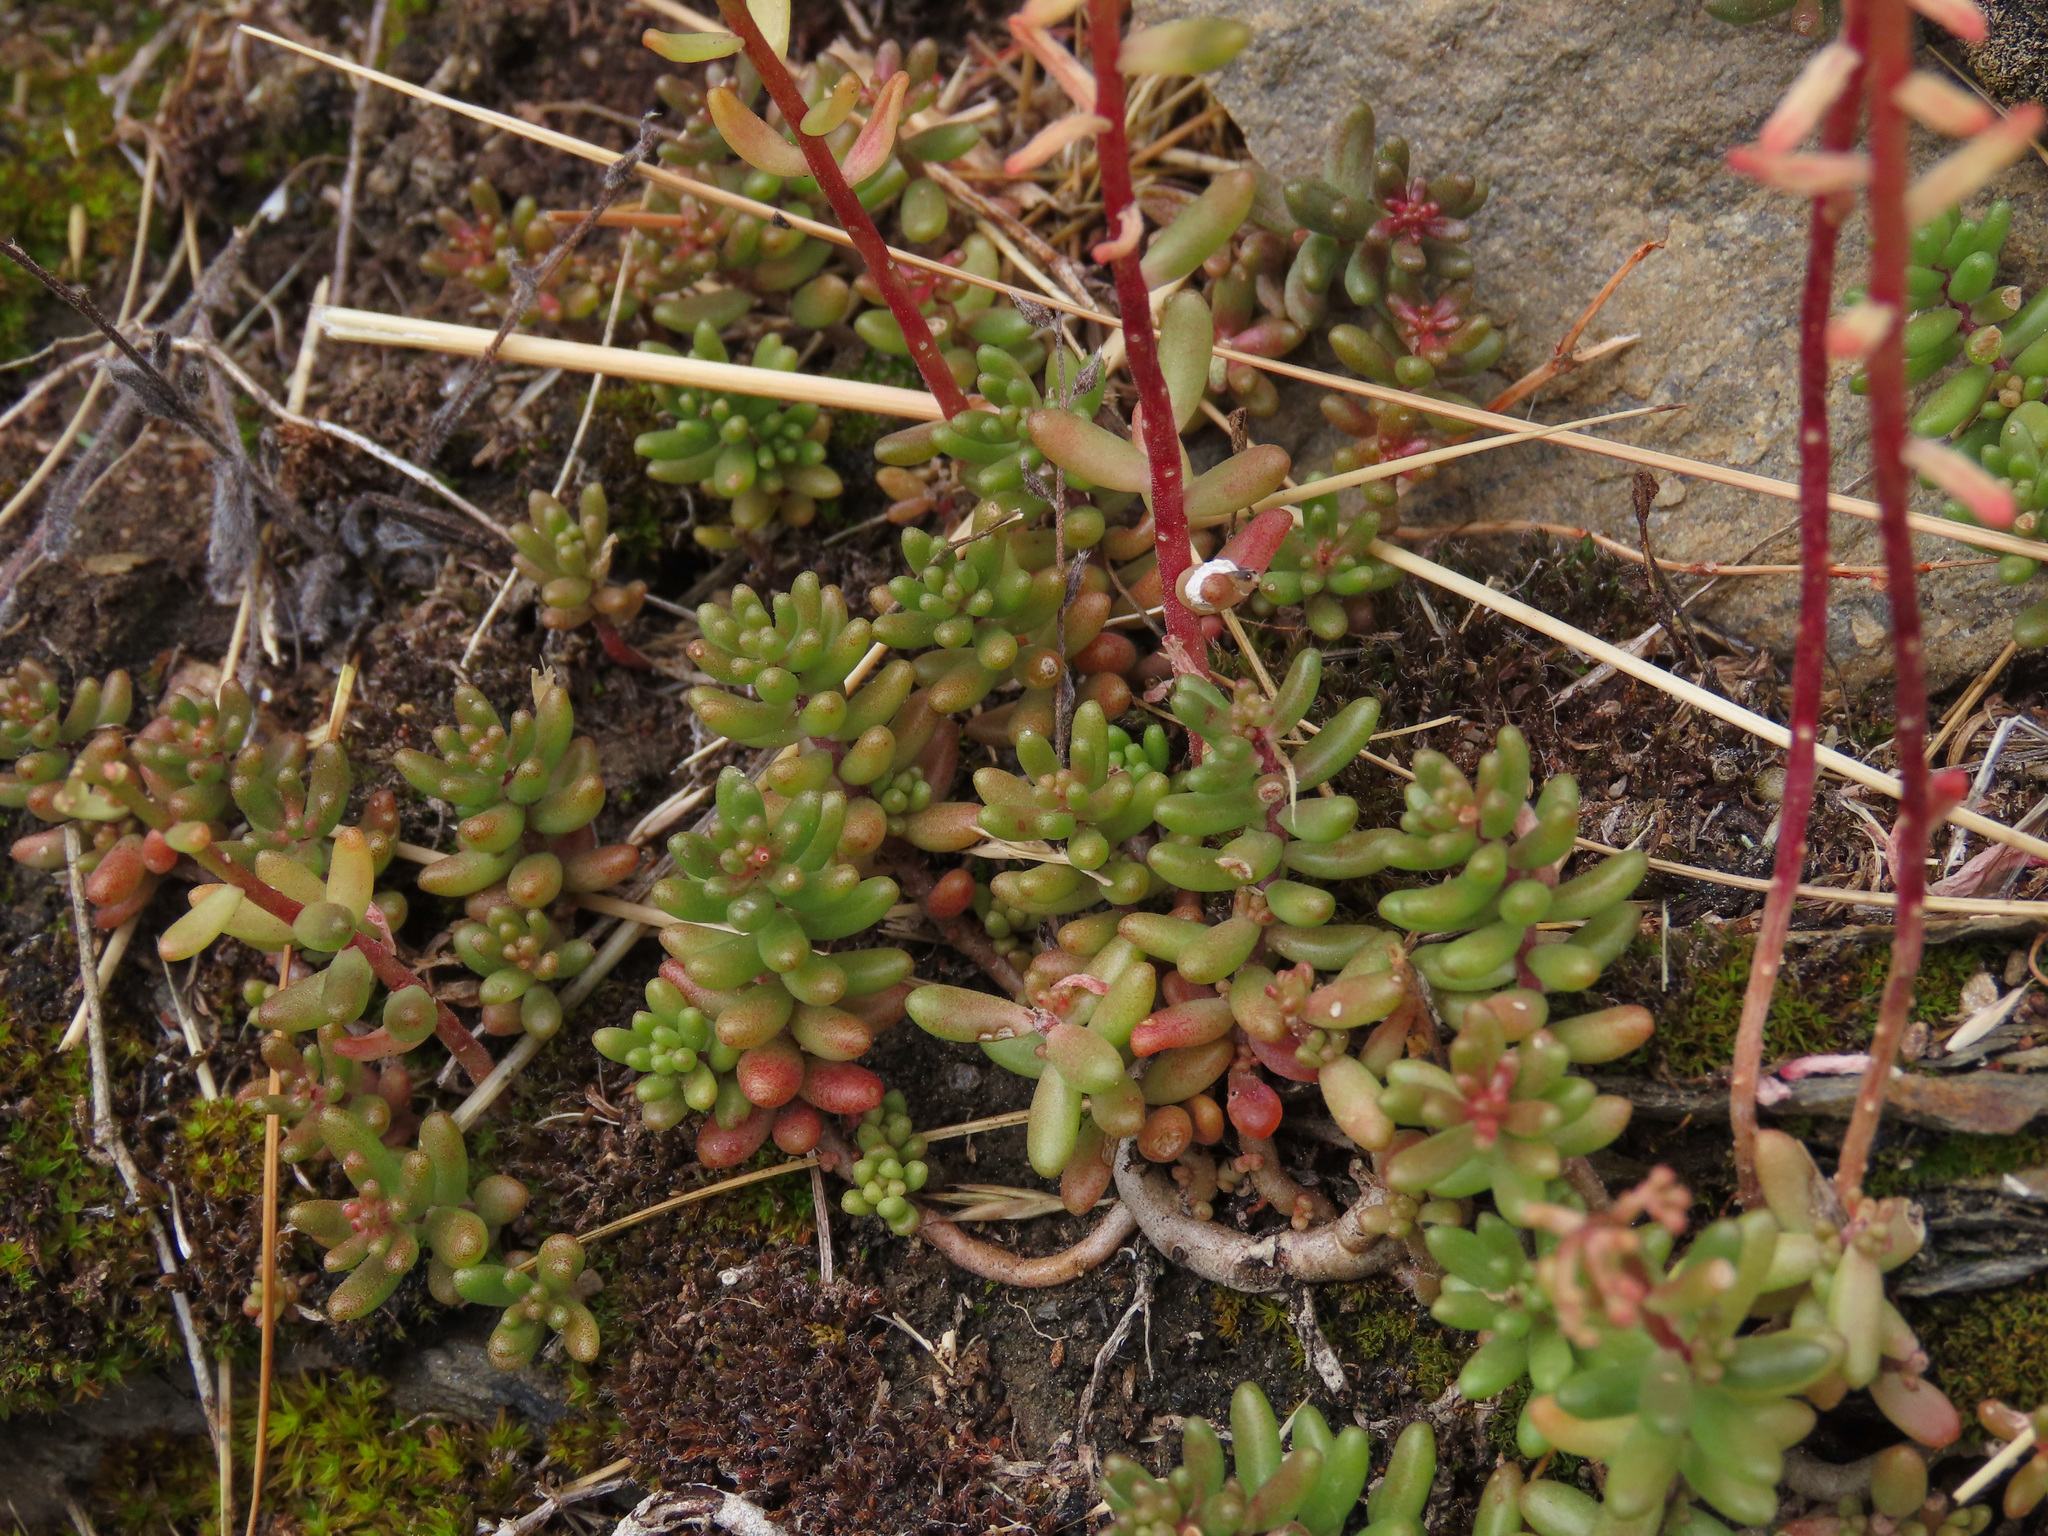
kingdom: Plantae
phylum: Tracheophyta
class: Magnoliopsida
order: Saxifragales
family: Crassulaceae
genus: Sedum
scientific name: Sedum album
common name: White stonecrop
